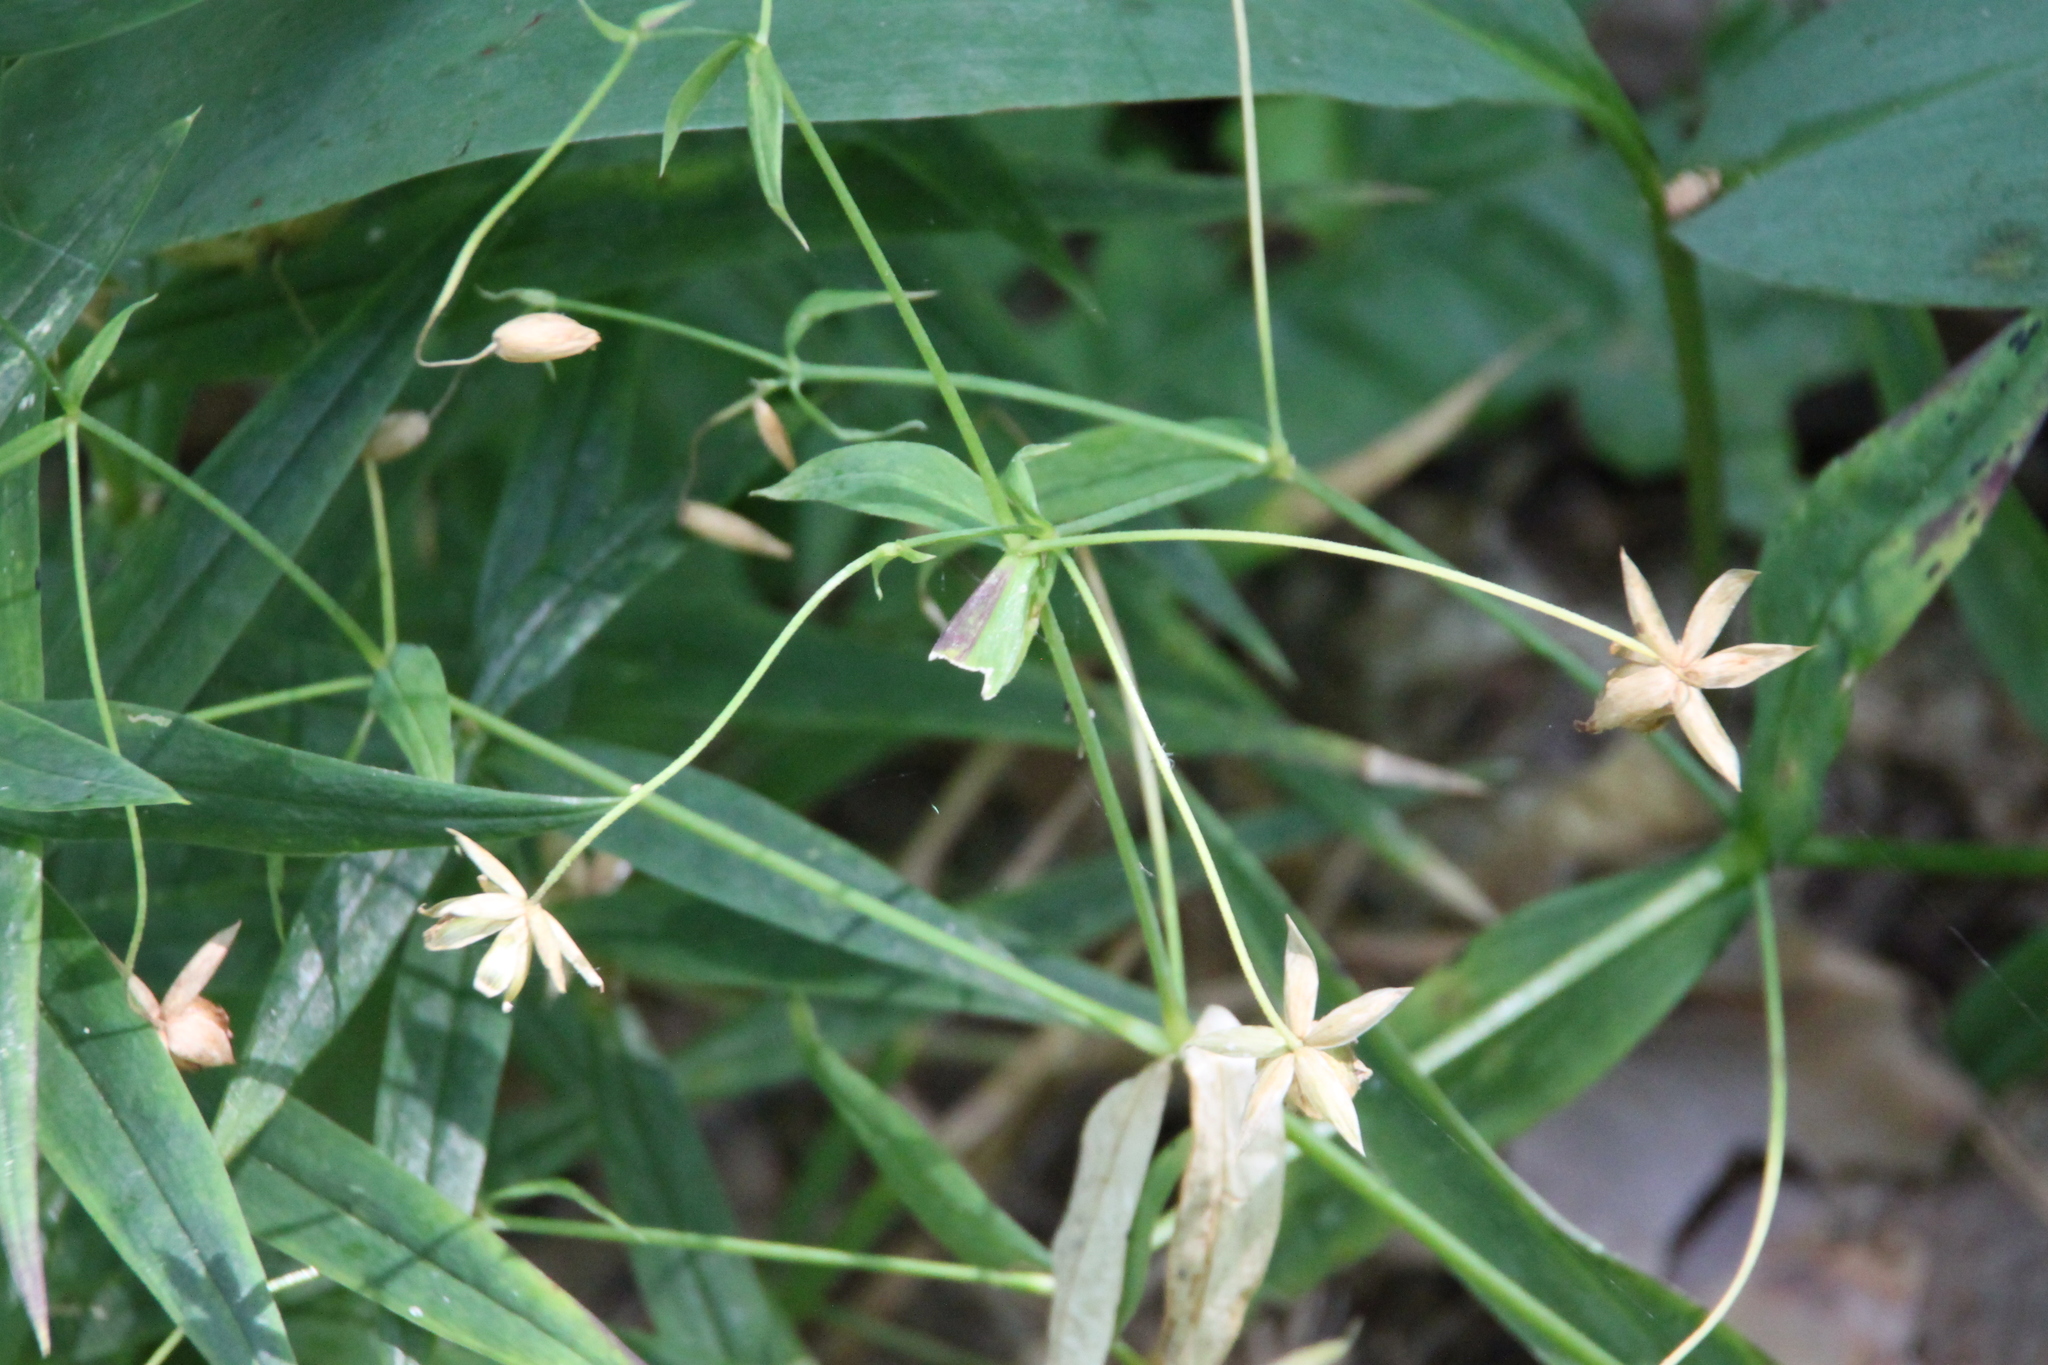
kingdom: Plantae
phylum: Tracheophyta
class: Magnoliopsida
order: Caryophyllales
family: Caryophyllaceae
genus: Rabelera
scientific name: Rabelera holostea
